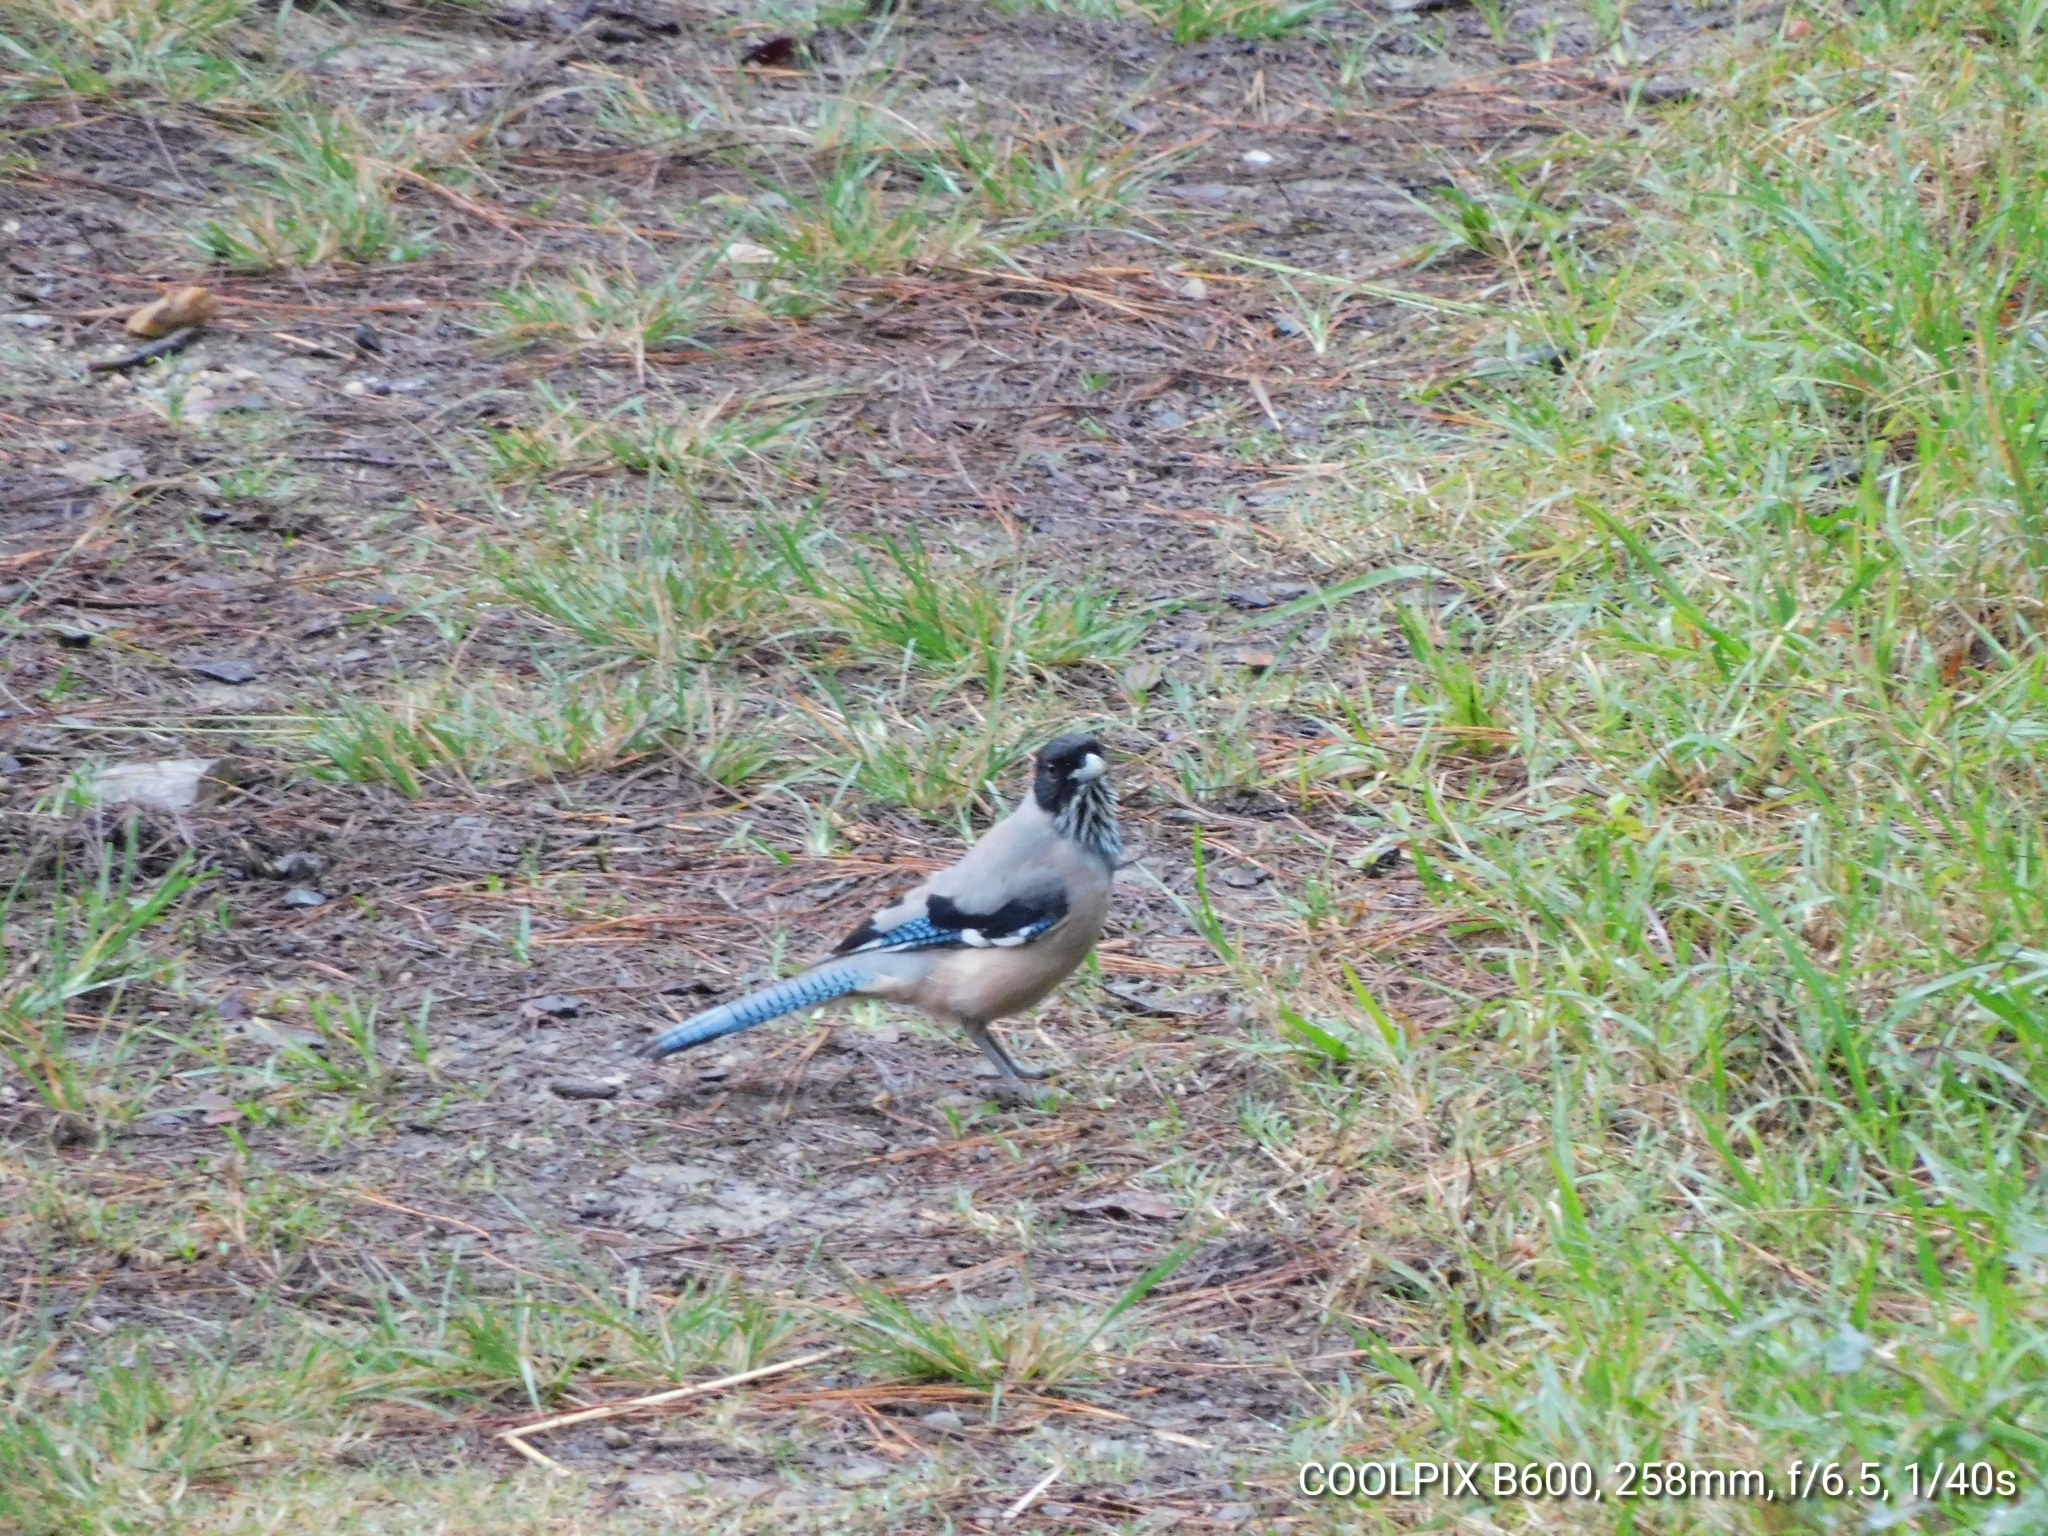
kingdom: Animalia
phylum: Chordata
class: Aves
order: Passeriformes
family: Corvidae
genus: Garrulus
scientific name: Garrulus lanceolatus
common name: Black-headed jay
